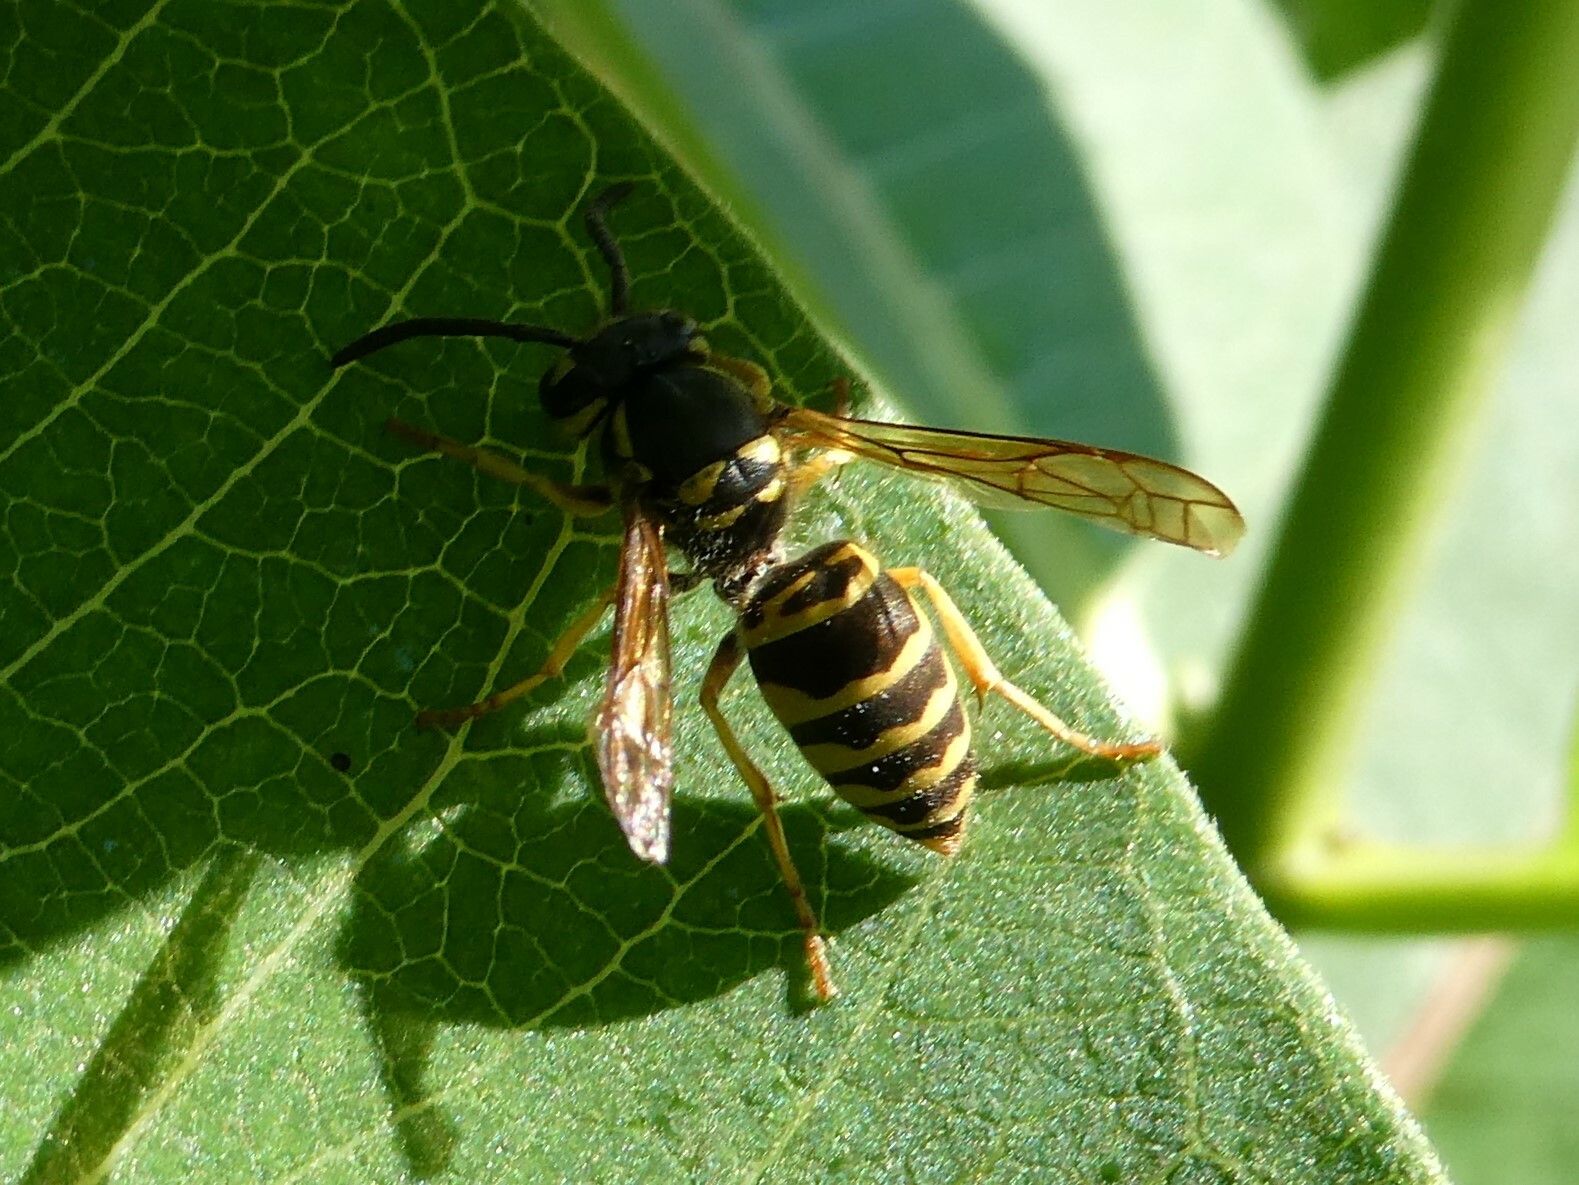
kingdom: Animalia
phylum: Arthropoda
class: Insecta
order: Hymenoptera
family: Vespidae
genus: Vespula
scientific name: Vespula maculifrons
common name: Eastern yellowjacket
